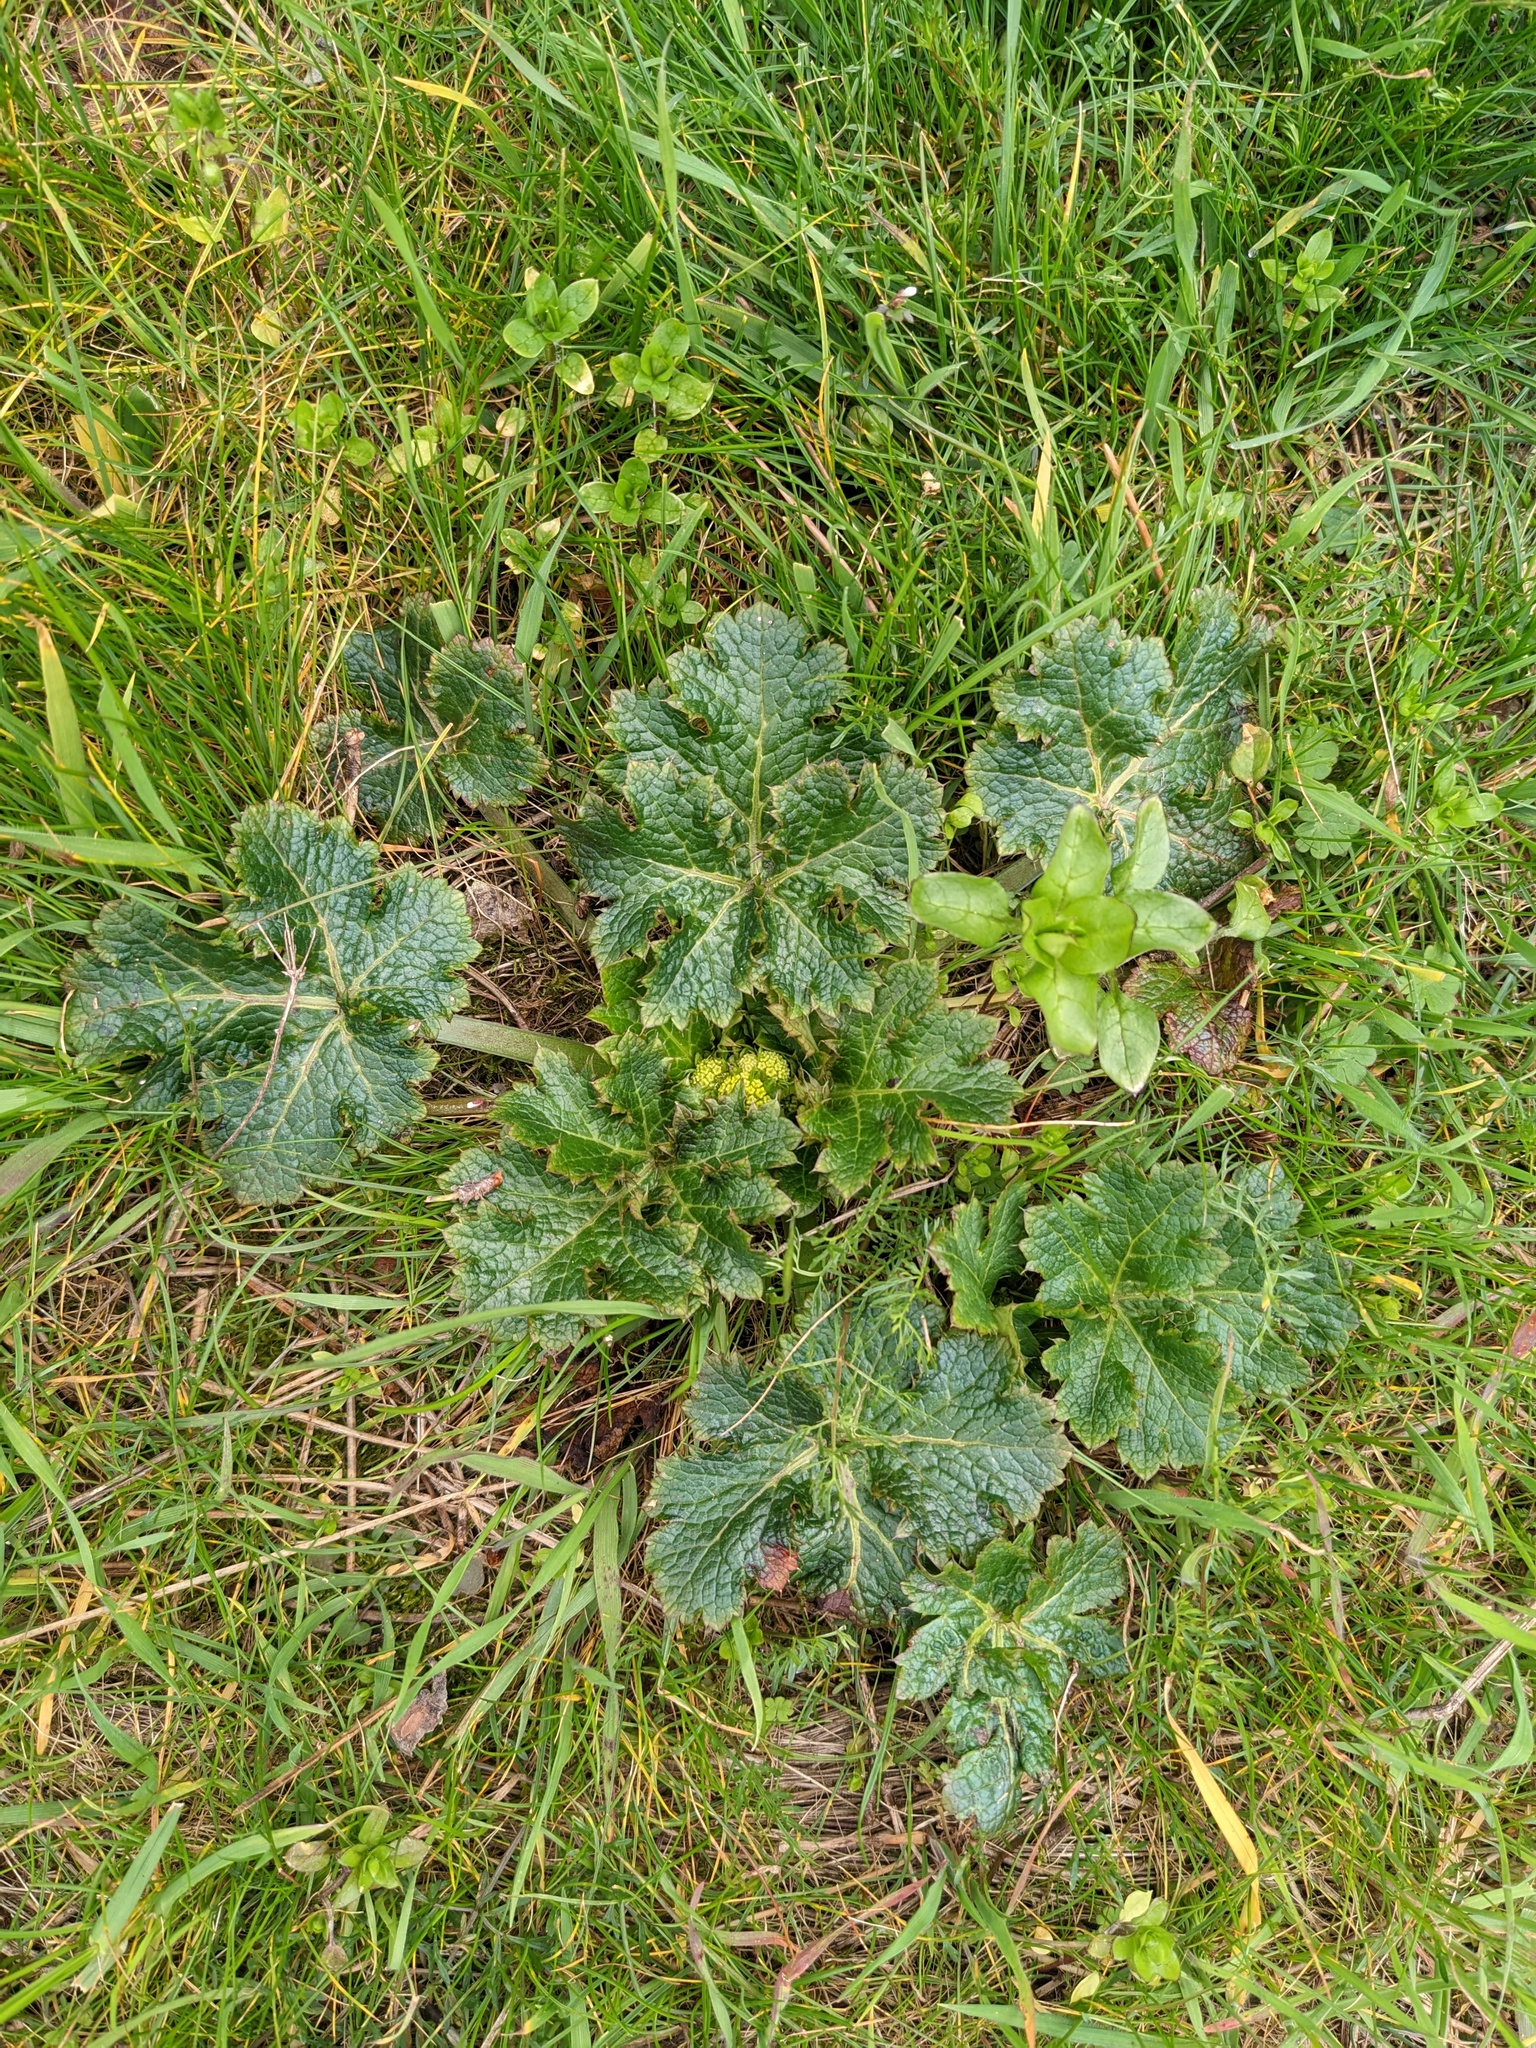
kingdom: Plantae
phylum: Tracheophyta
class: Magnoliopsida
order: Apiales
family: Apiaceae
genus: Sanicula
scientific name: Sanicula crassicaulis
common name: Western snakeroot
